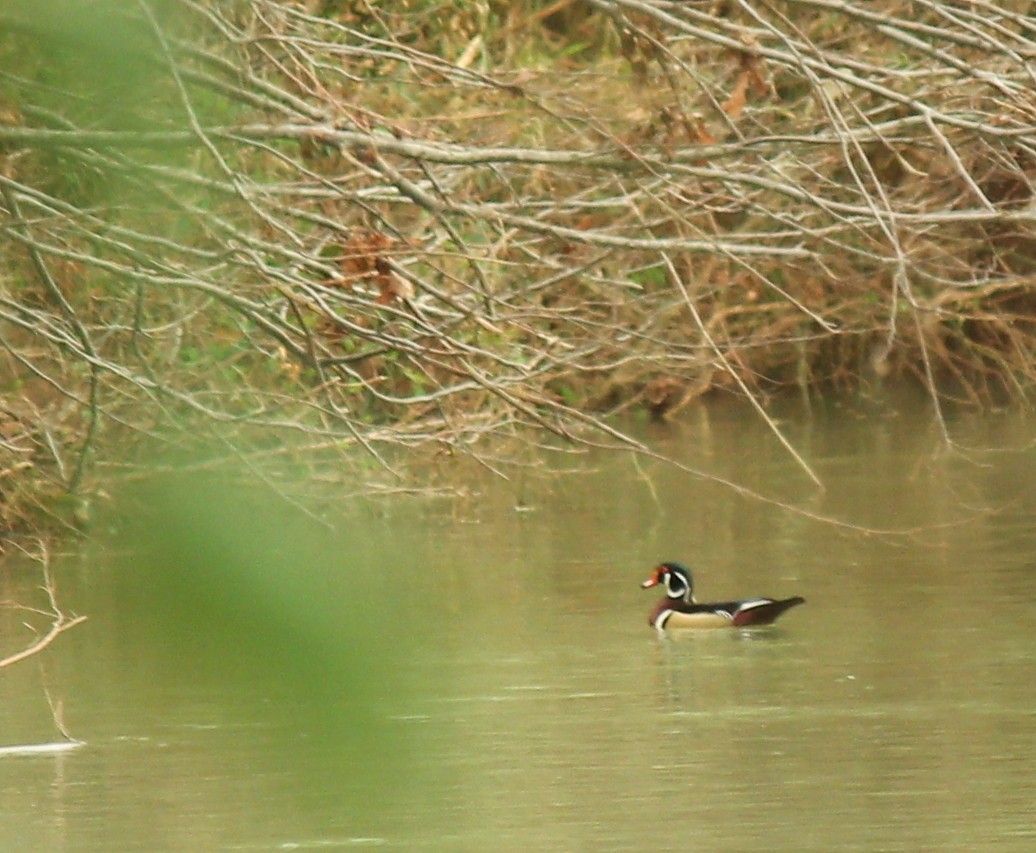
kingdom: Animalia
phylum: Chordata
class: Aves
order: Anseriformes
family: Anatidae
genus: Aix
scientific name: Aix sponsa
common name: Wood duck
